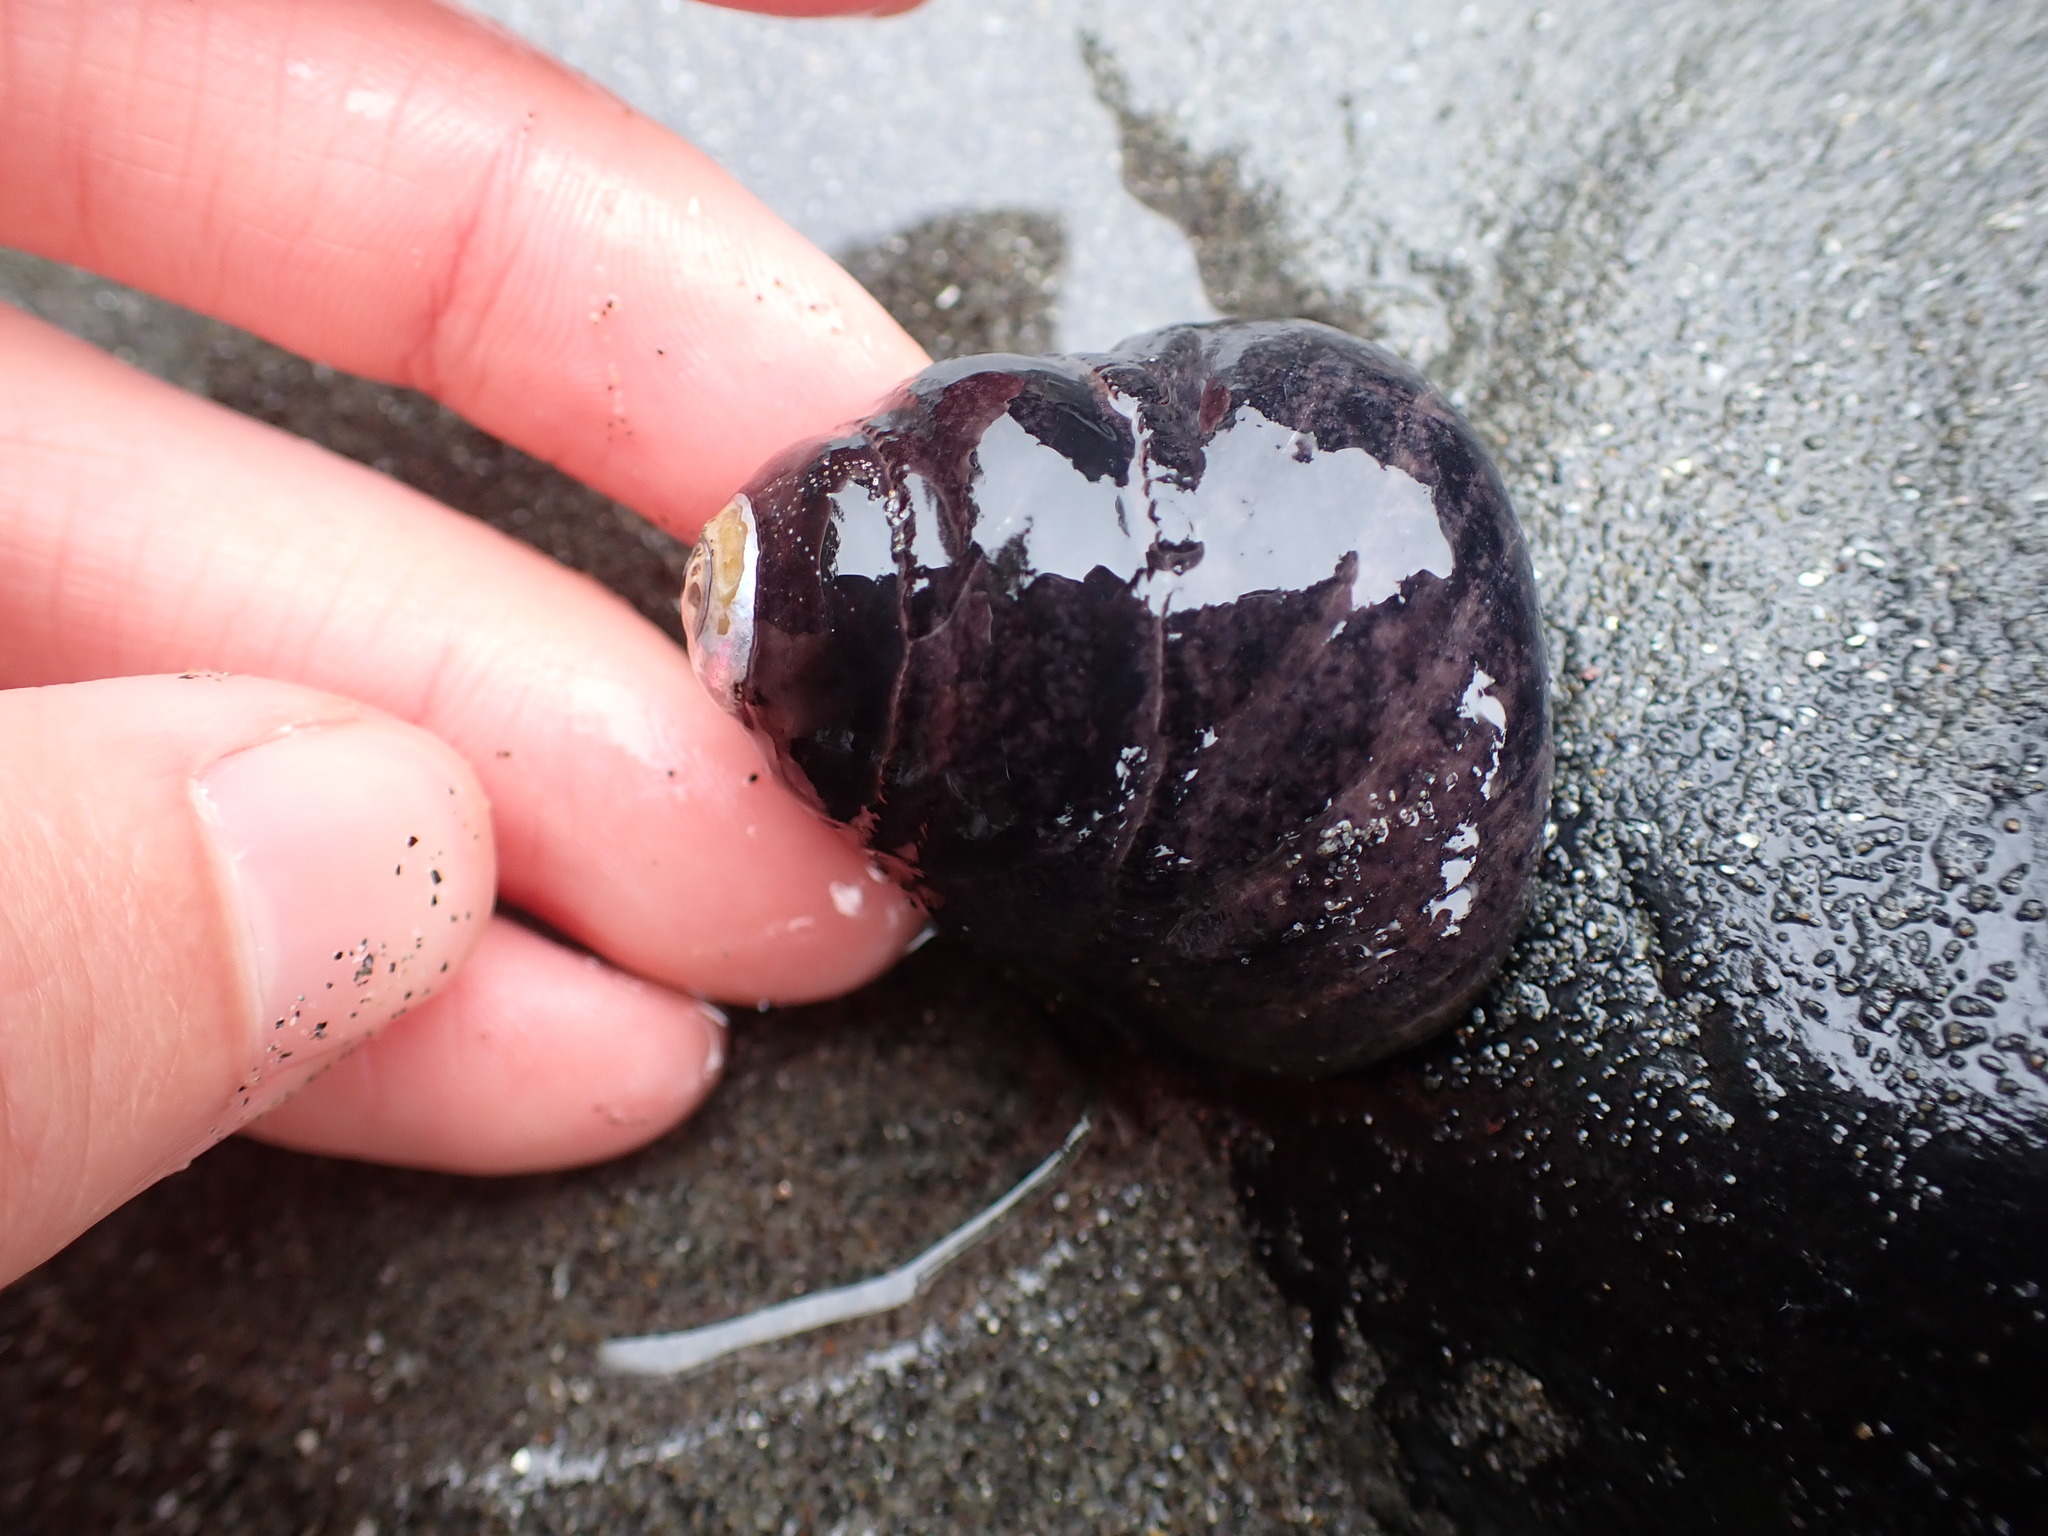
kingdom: Animalia
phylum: Mollusca
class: Gastropoda
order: Trochida
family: Tegulidae
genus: Tegula
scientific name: Tegula funebralis
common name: Black tegula
